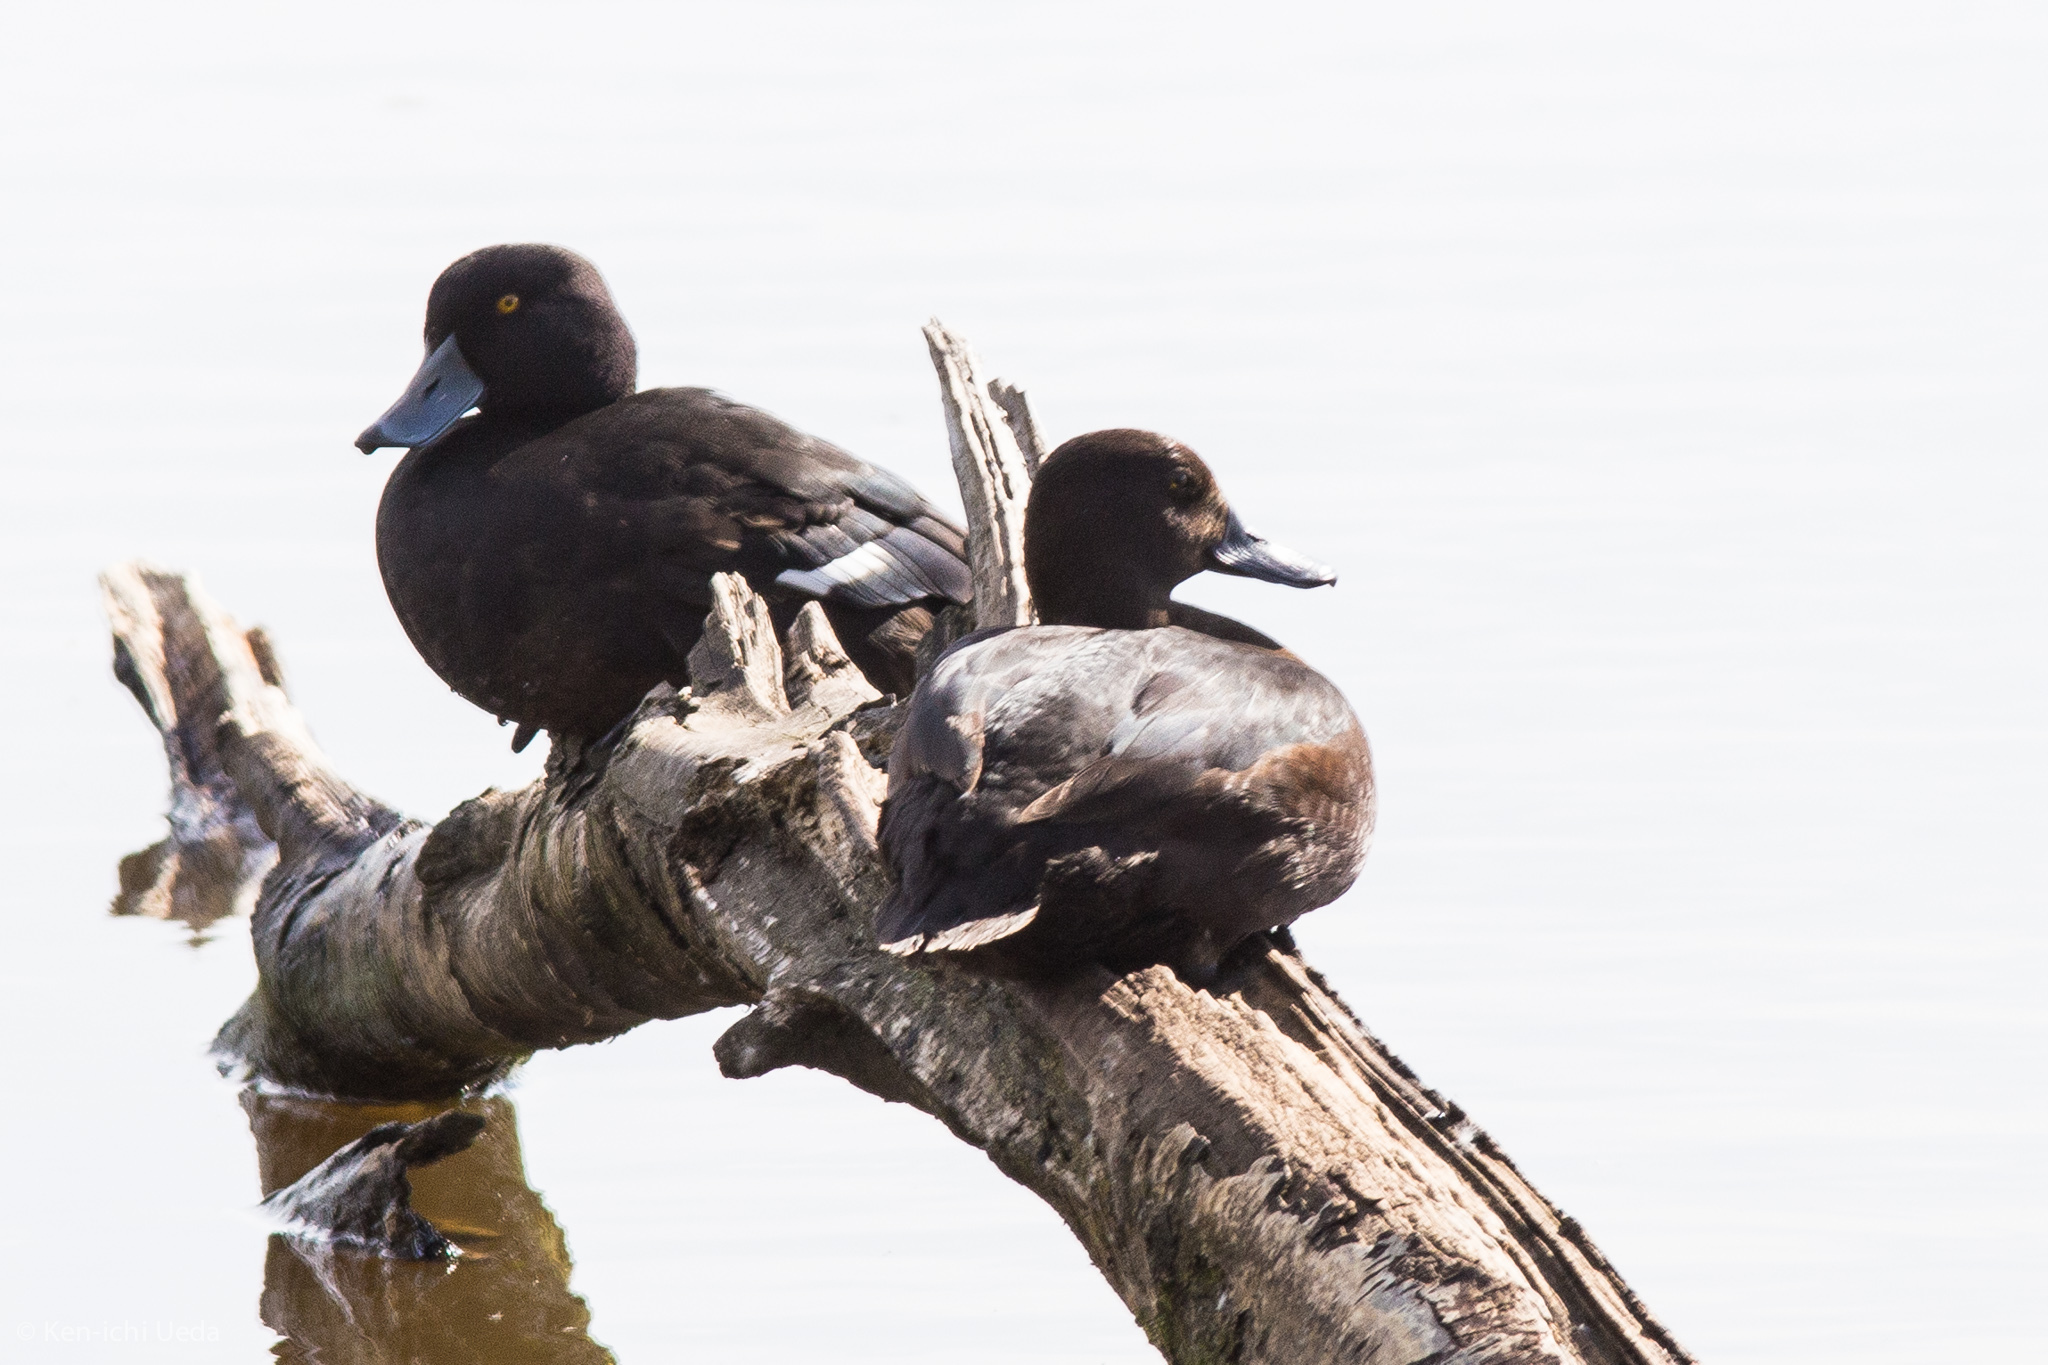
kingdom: Animalia
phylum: Chordata
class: Aves
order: Anseriformes
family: Anatidae
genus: Aythya
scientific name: Aythya novaeseelandiae
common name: New zealand scaup
